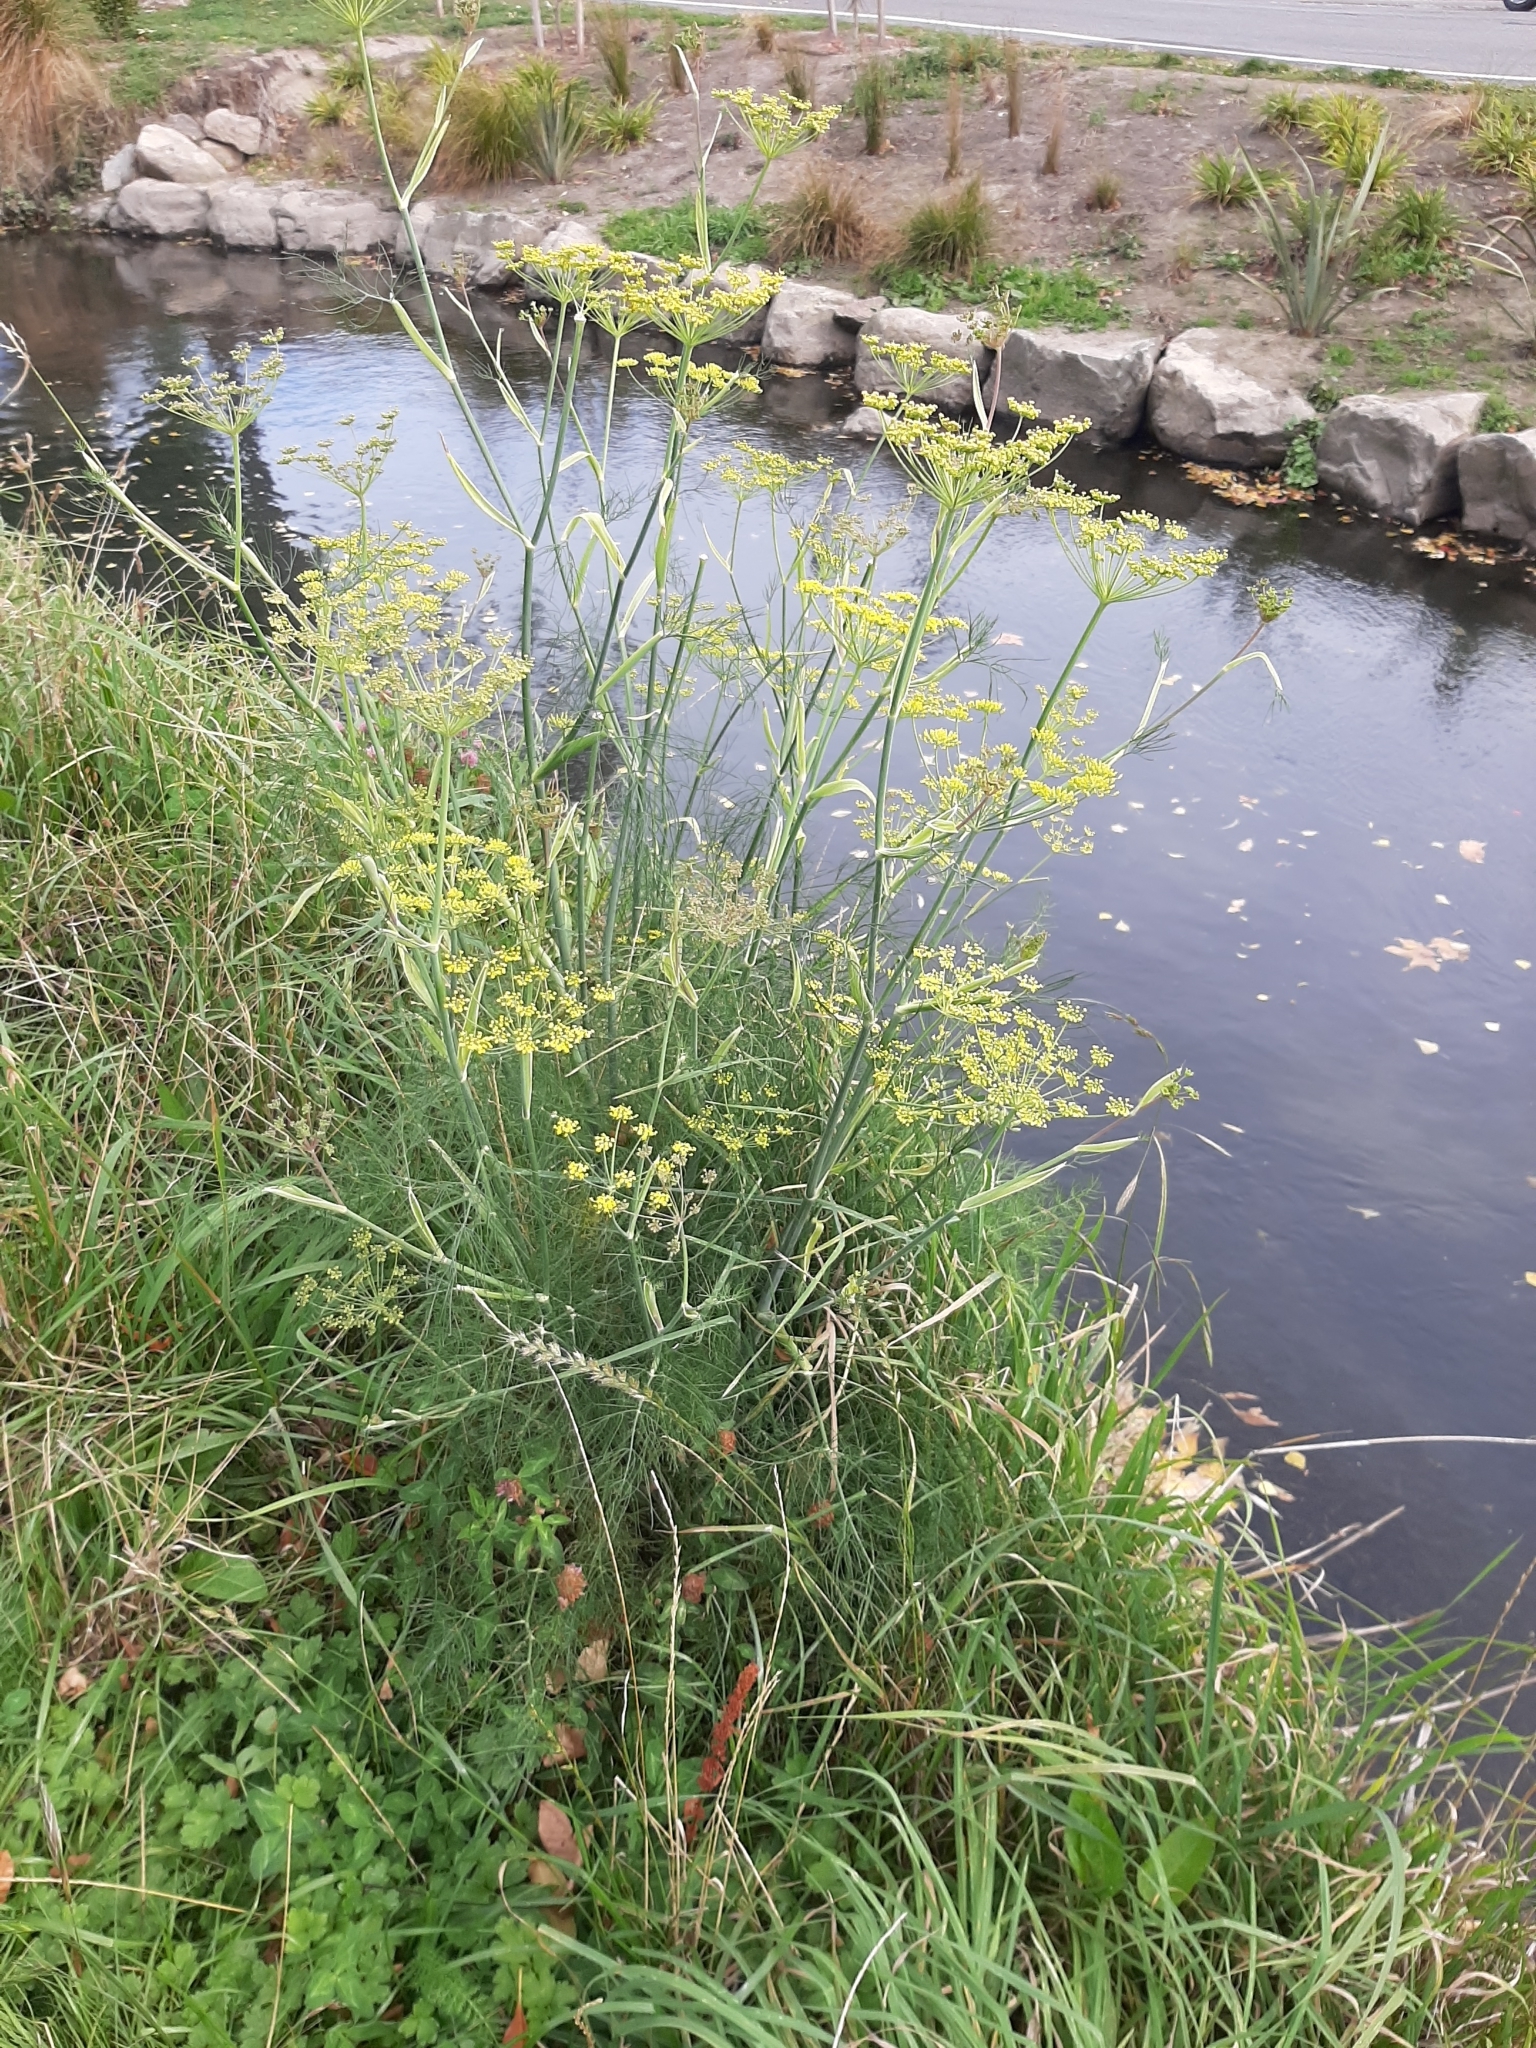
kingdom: Plantae
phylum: Tracheophyta
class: Magnoliopsida
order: Apiales
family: Apiaceae
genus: Foeniculum
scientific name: Foeniculum vulgare
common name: Fennel
